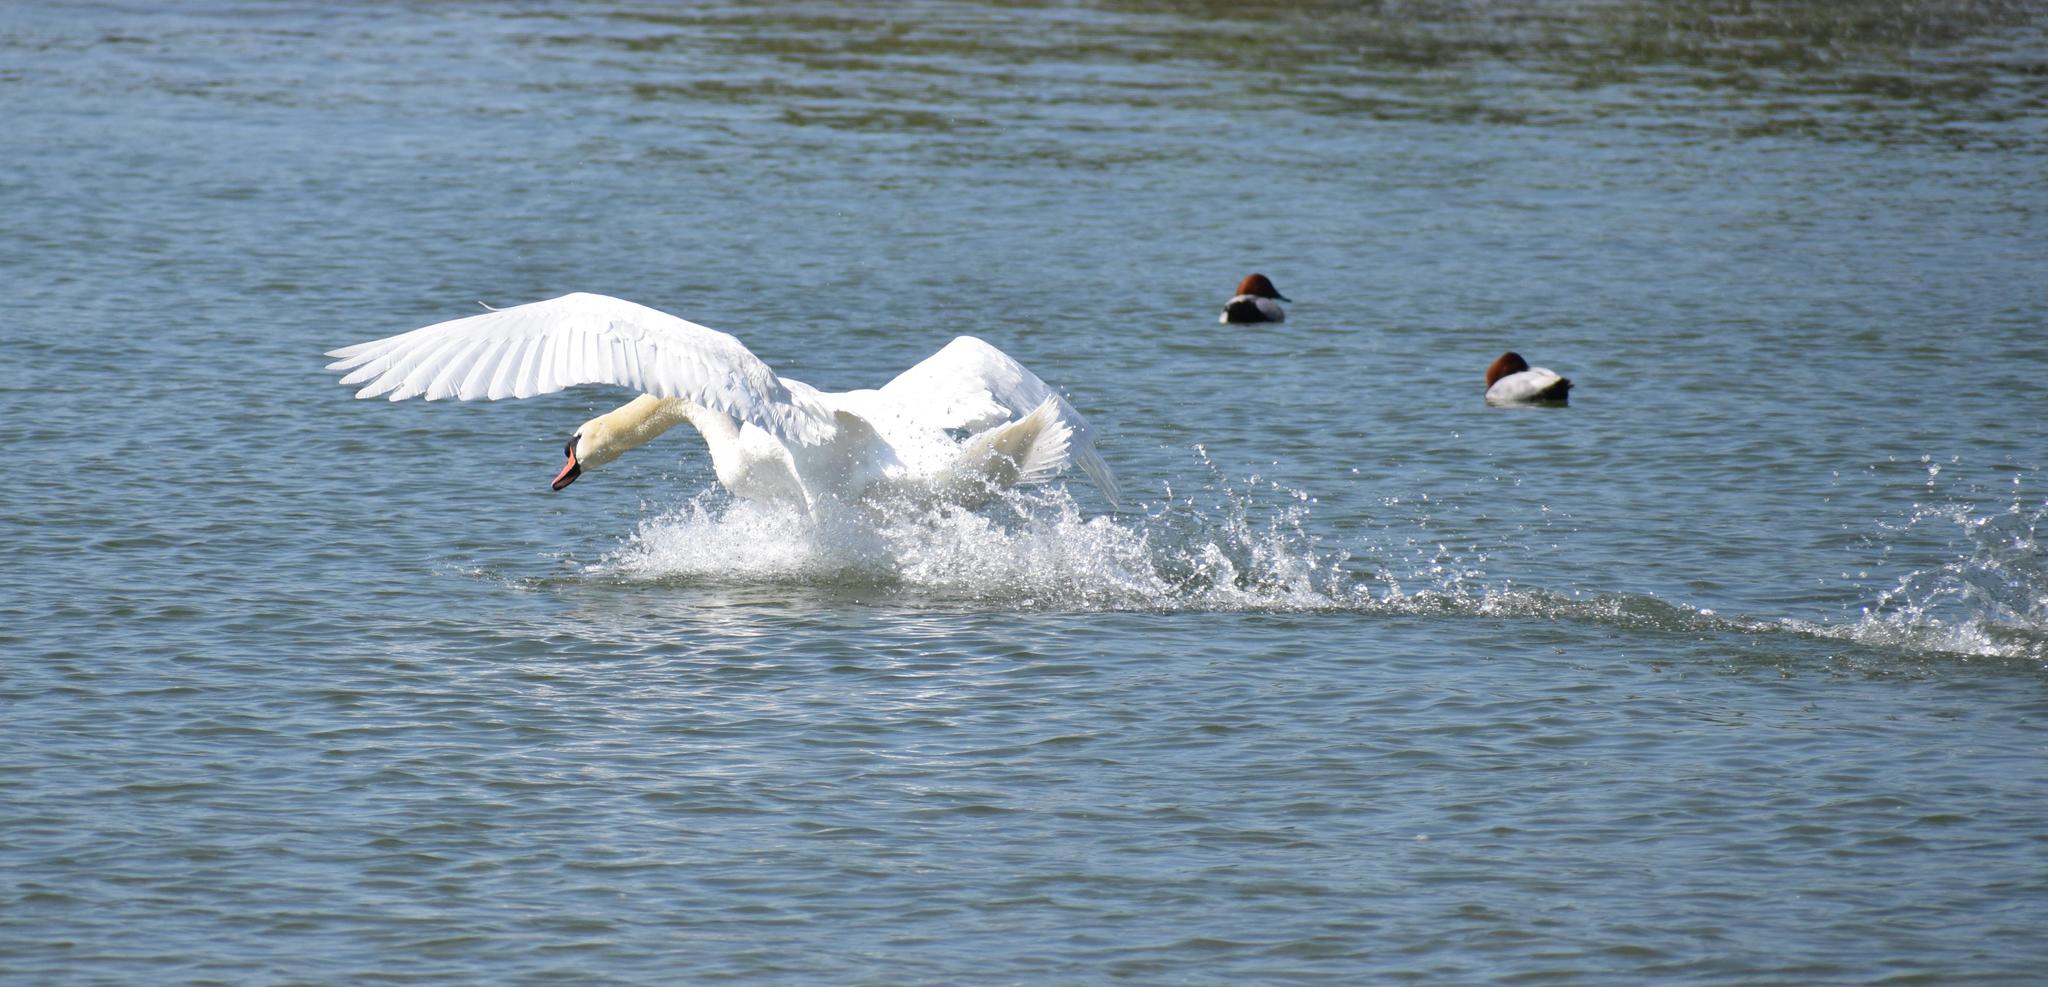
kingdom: Animalia
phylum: Chordata
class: Aves
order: Anseriformes
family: Anatidae
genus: Cygnus
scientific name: Cygnus olor
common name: Mute swan
